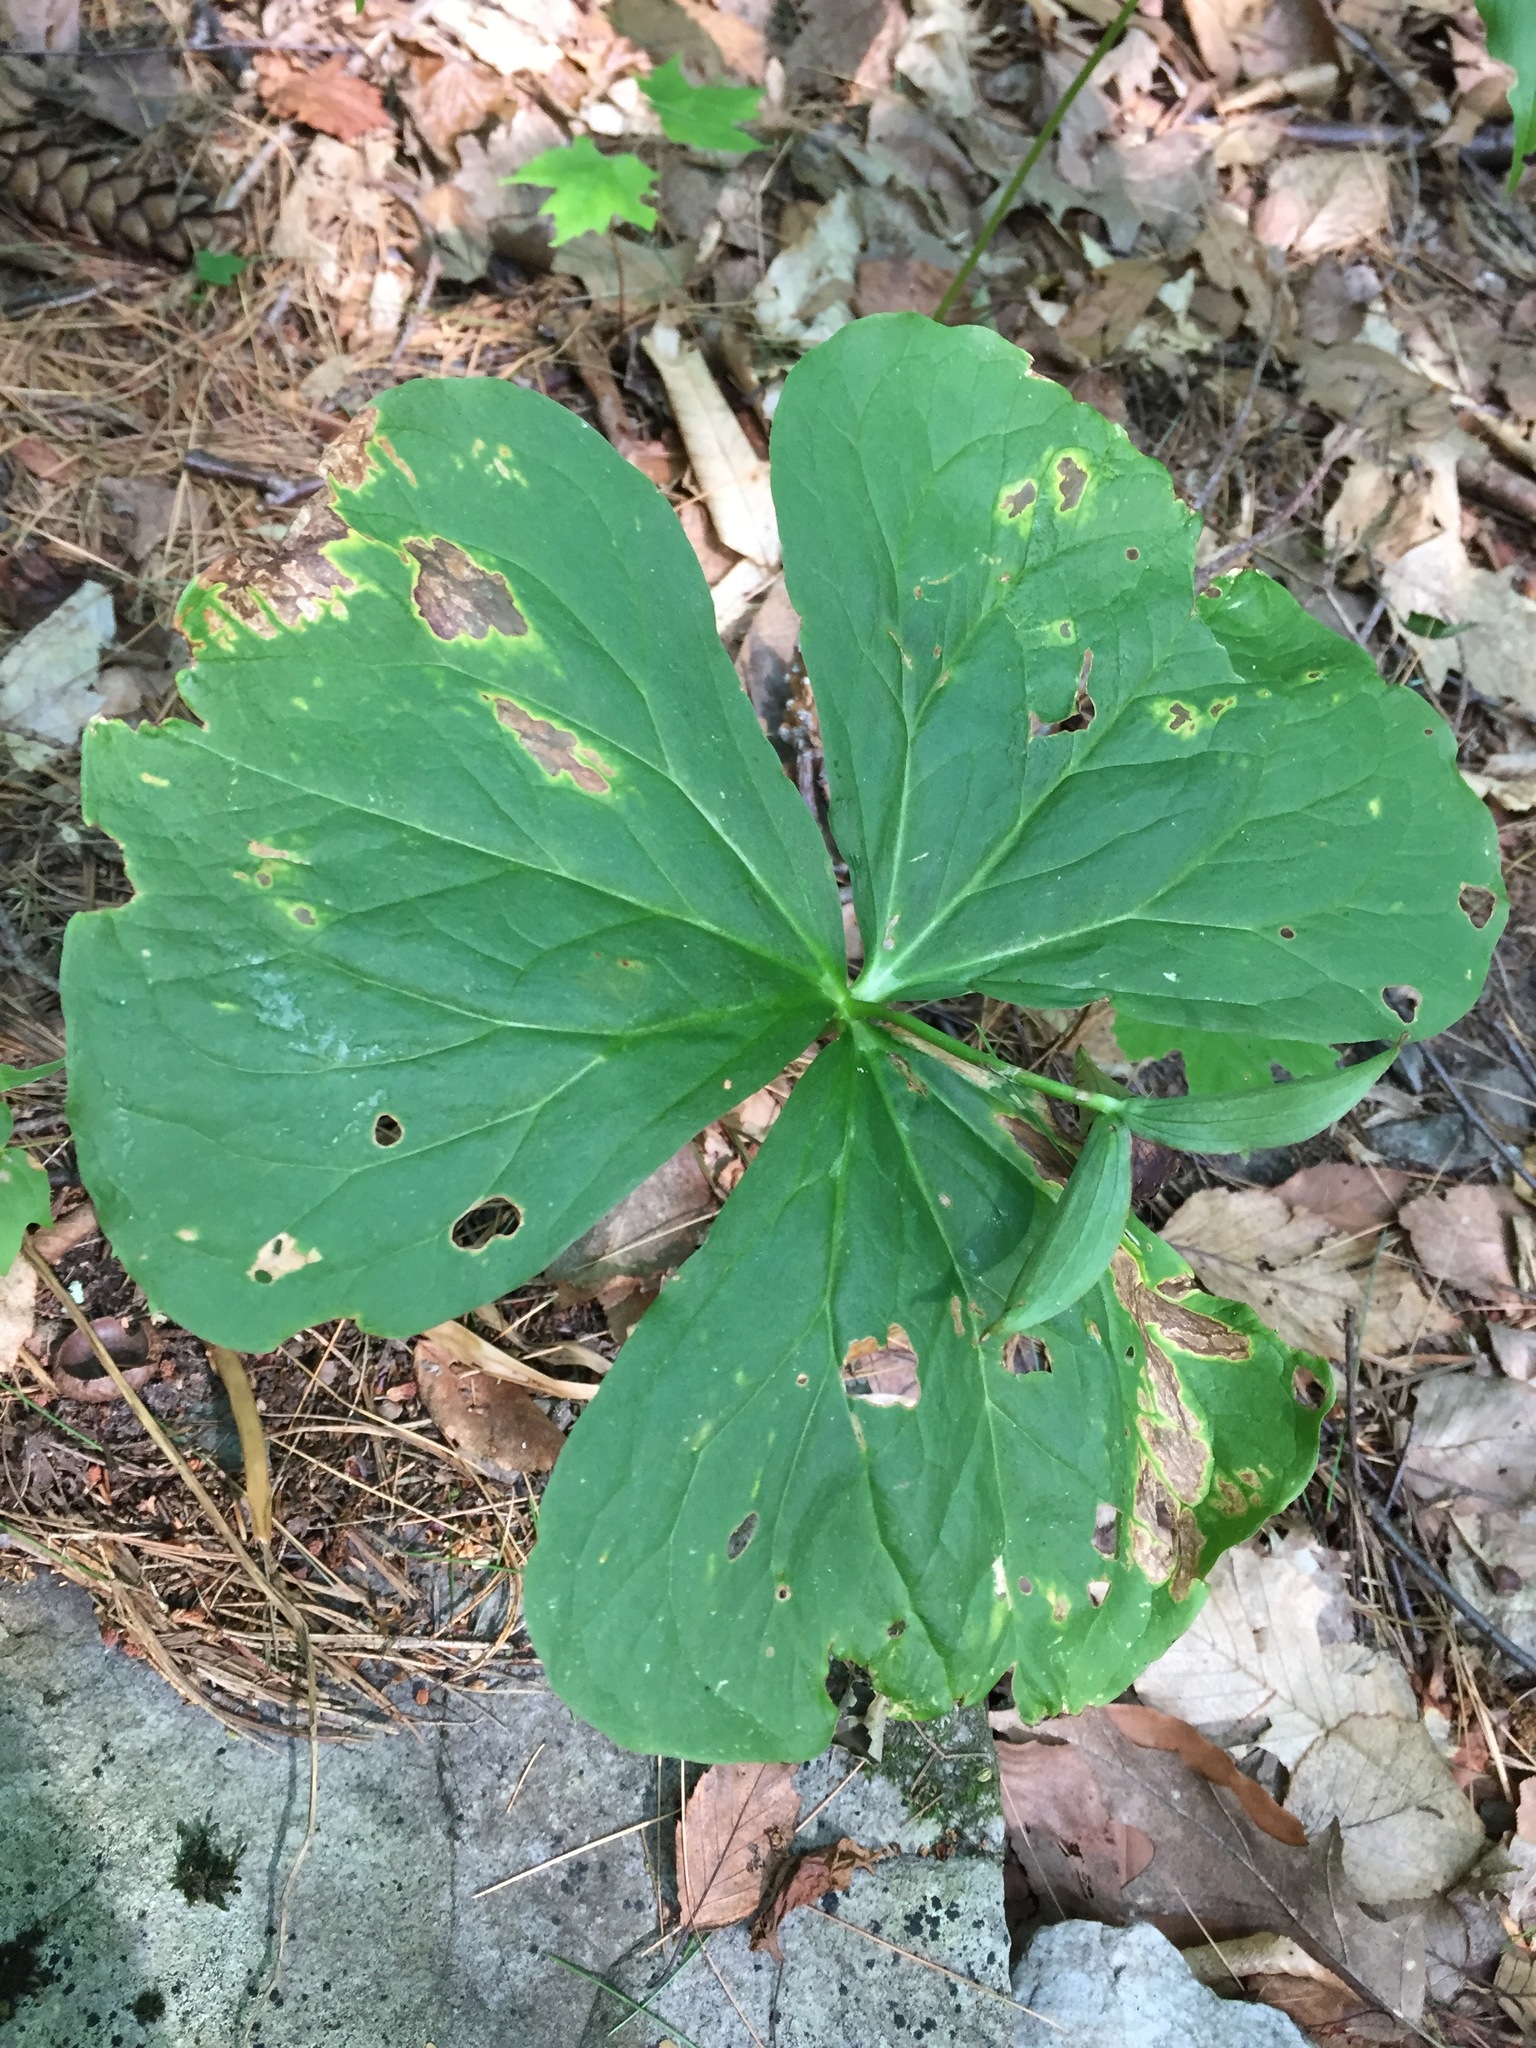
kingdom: Plantae
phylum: Tracheophyta
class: Liliopsida
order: Liliales
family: Melanthiaceae
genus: Trillium
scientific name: Trillium erectum
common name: Purple trillium
